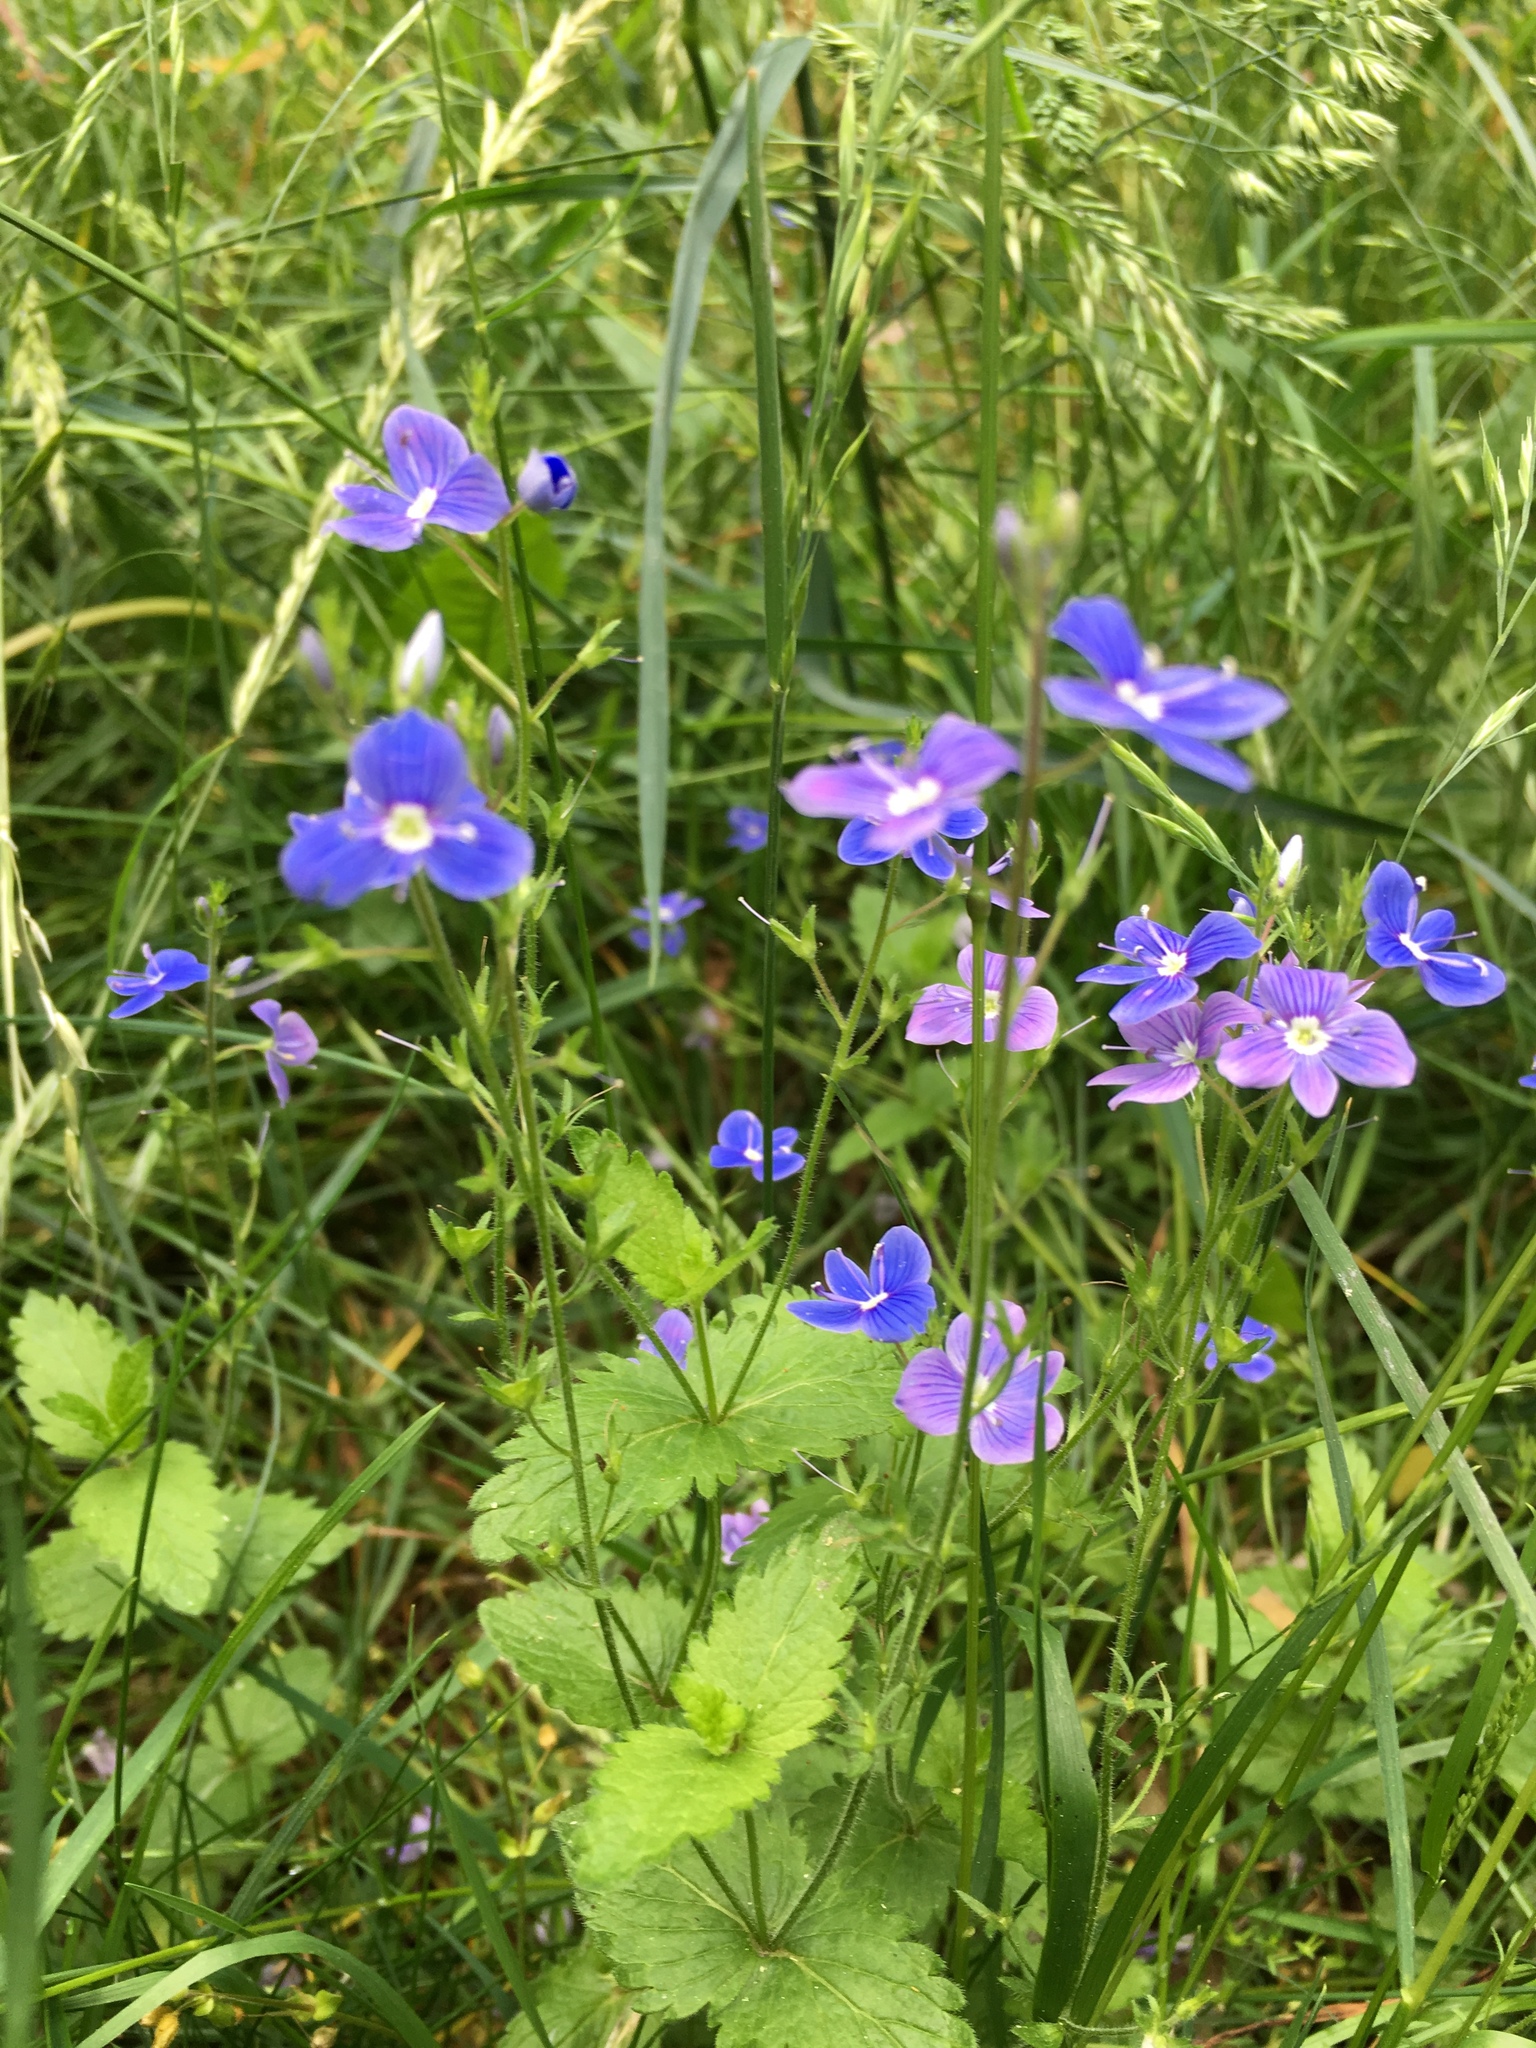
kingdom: Plantae
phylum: Tracheophyta
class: Magnoliopsida
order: Lamiales
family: Plantaginaceae
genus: Veronica
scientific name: Veronica chamaedrys
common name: Germander speedwell
